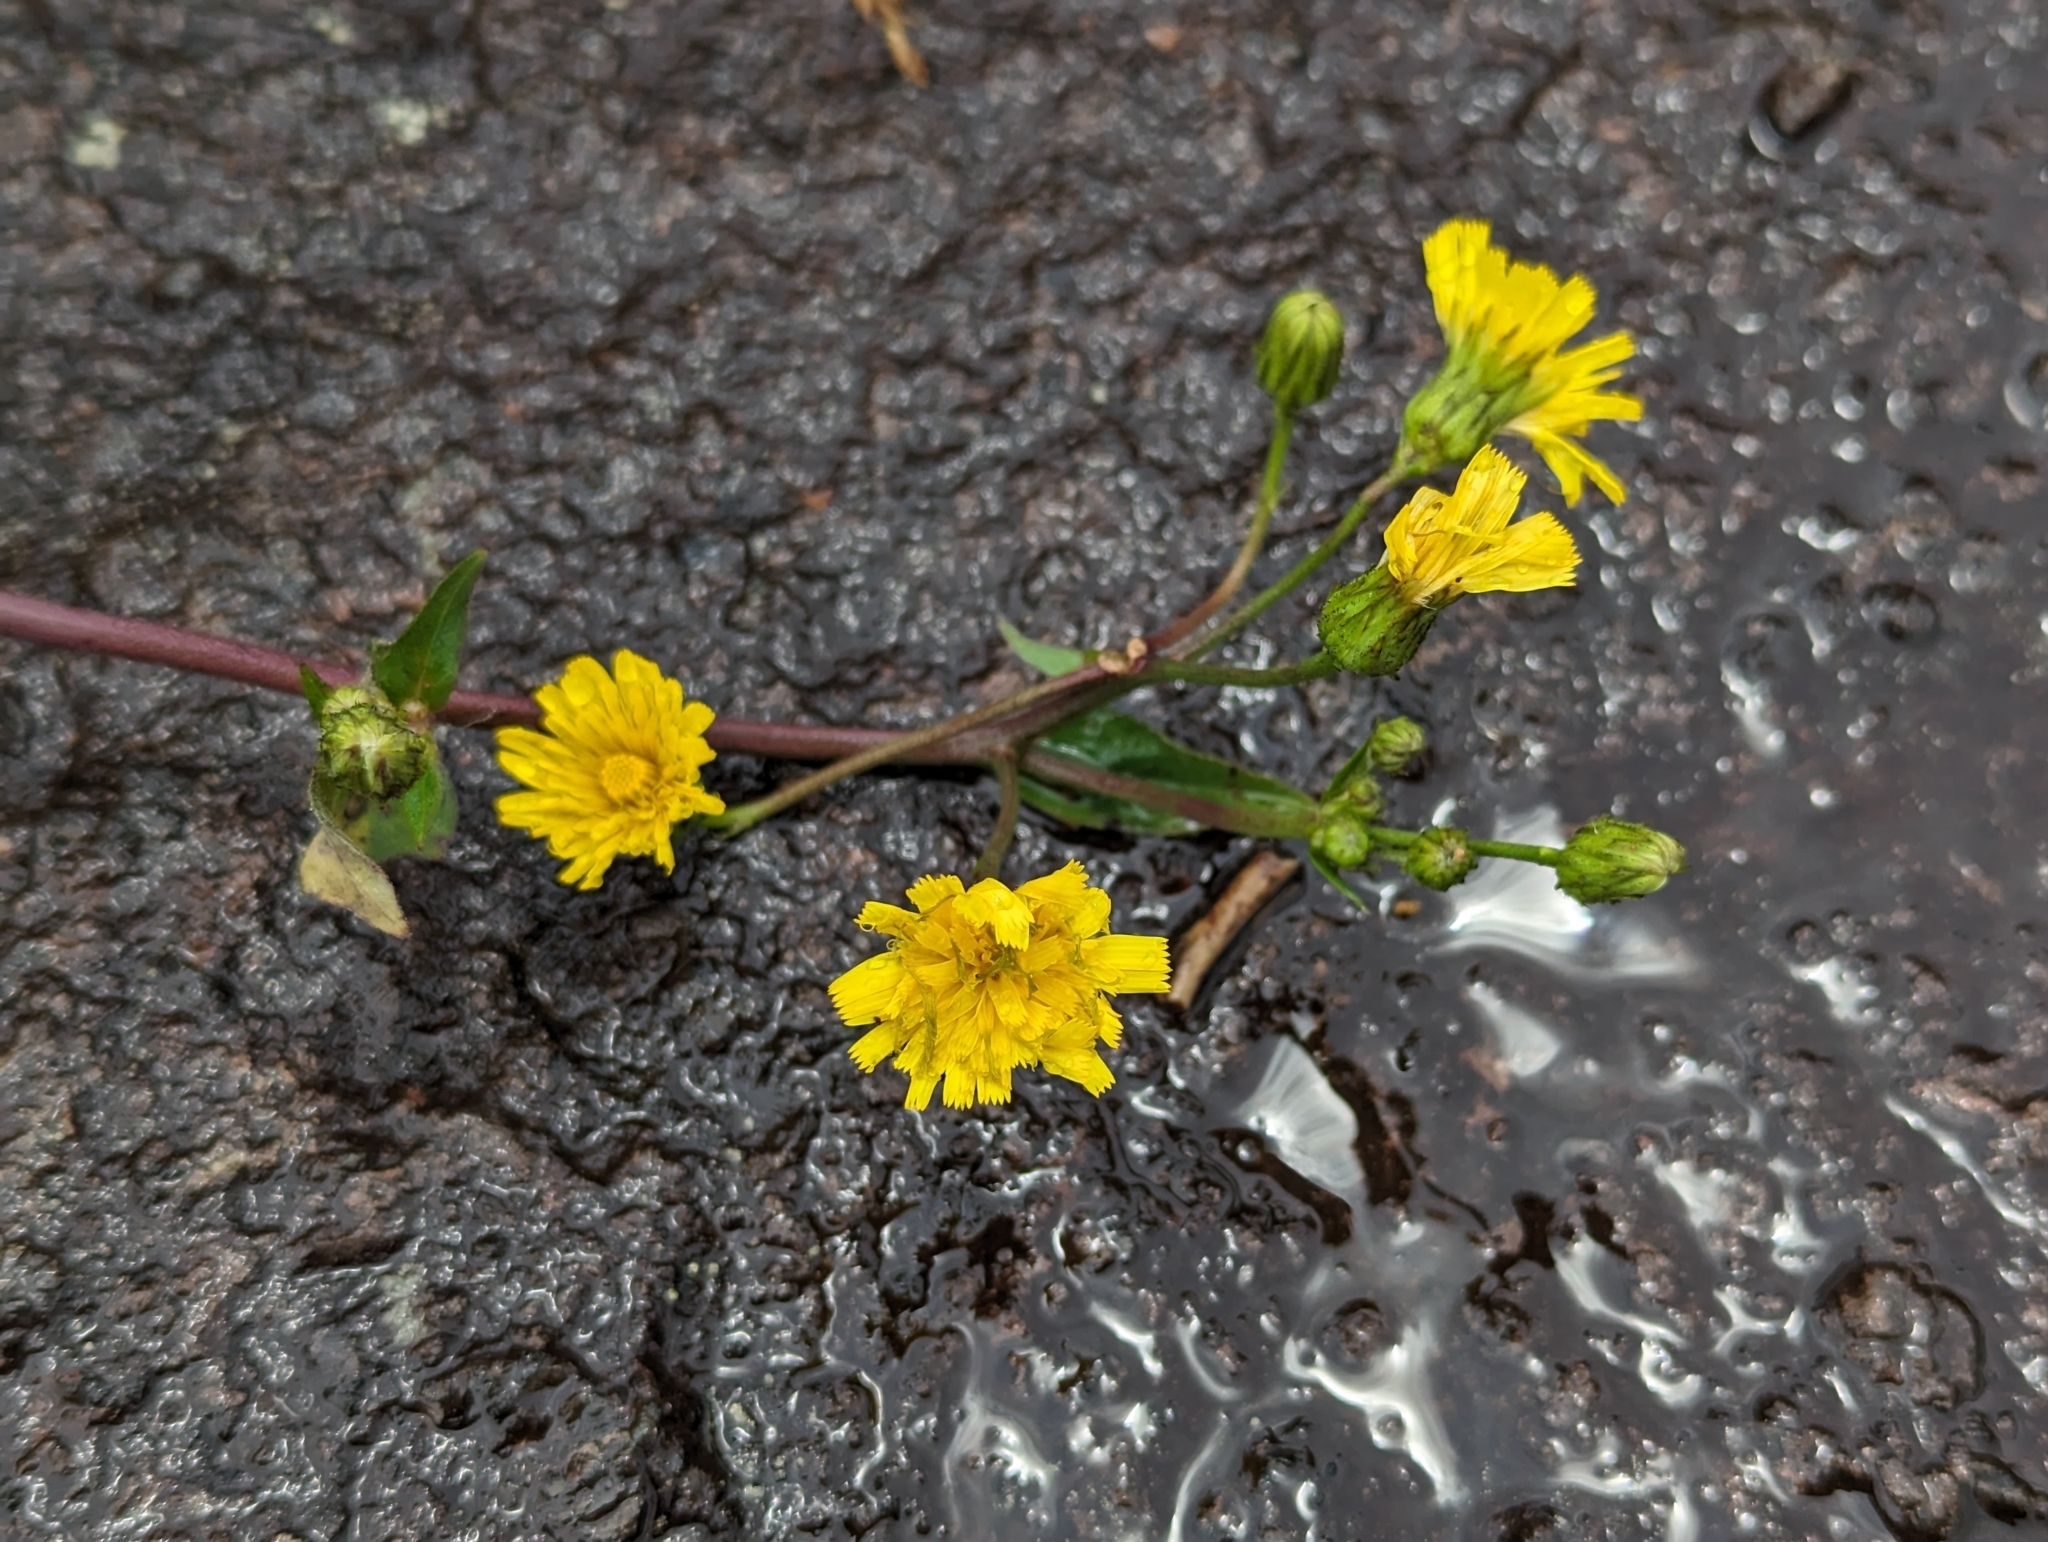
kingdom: Plantae
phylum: Tracheophyta
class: Magnoliopsida
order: Asterales
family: Asteraceae
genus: Hieracium
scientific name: Hieracium umbellatum
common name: Northern hawkweed
